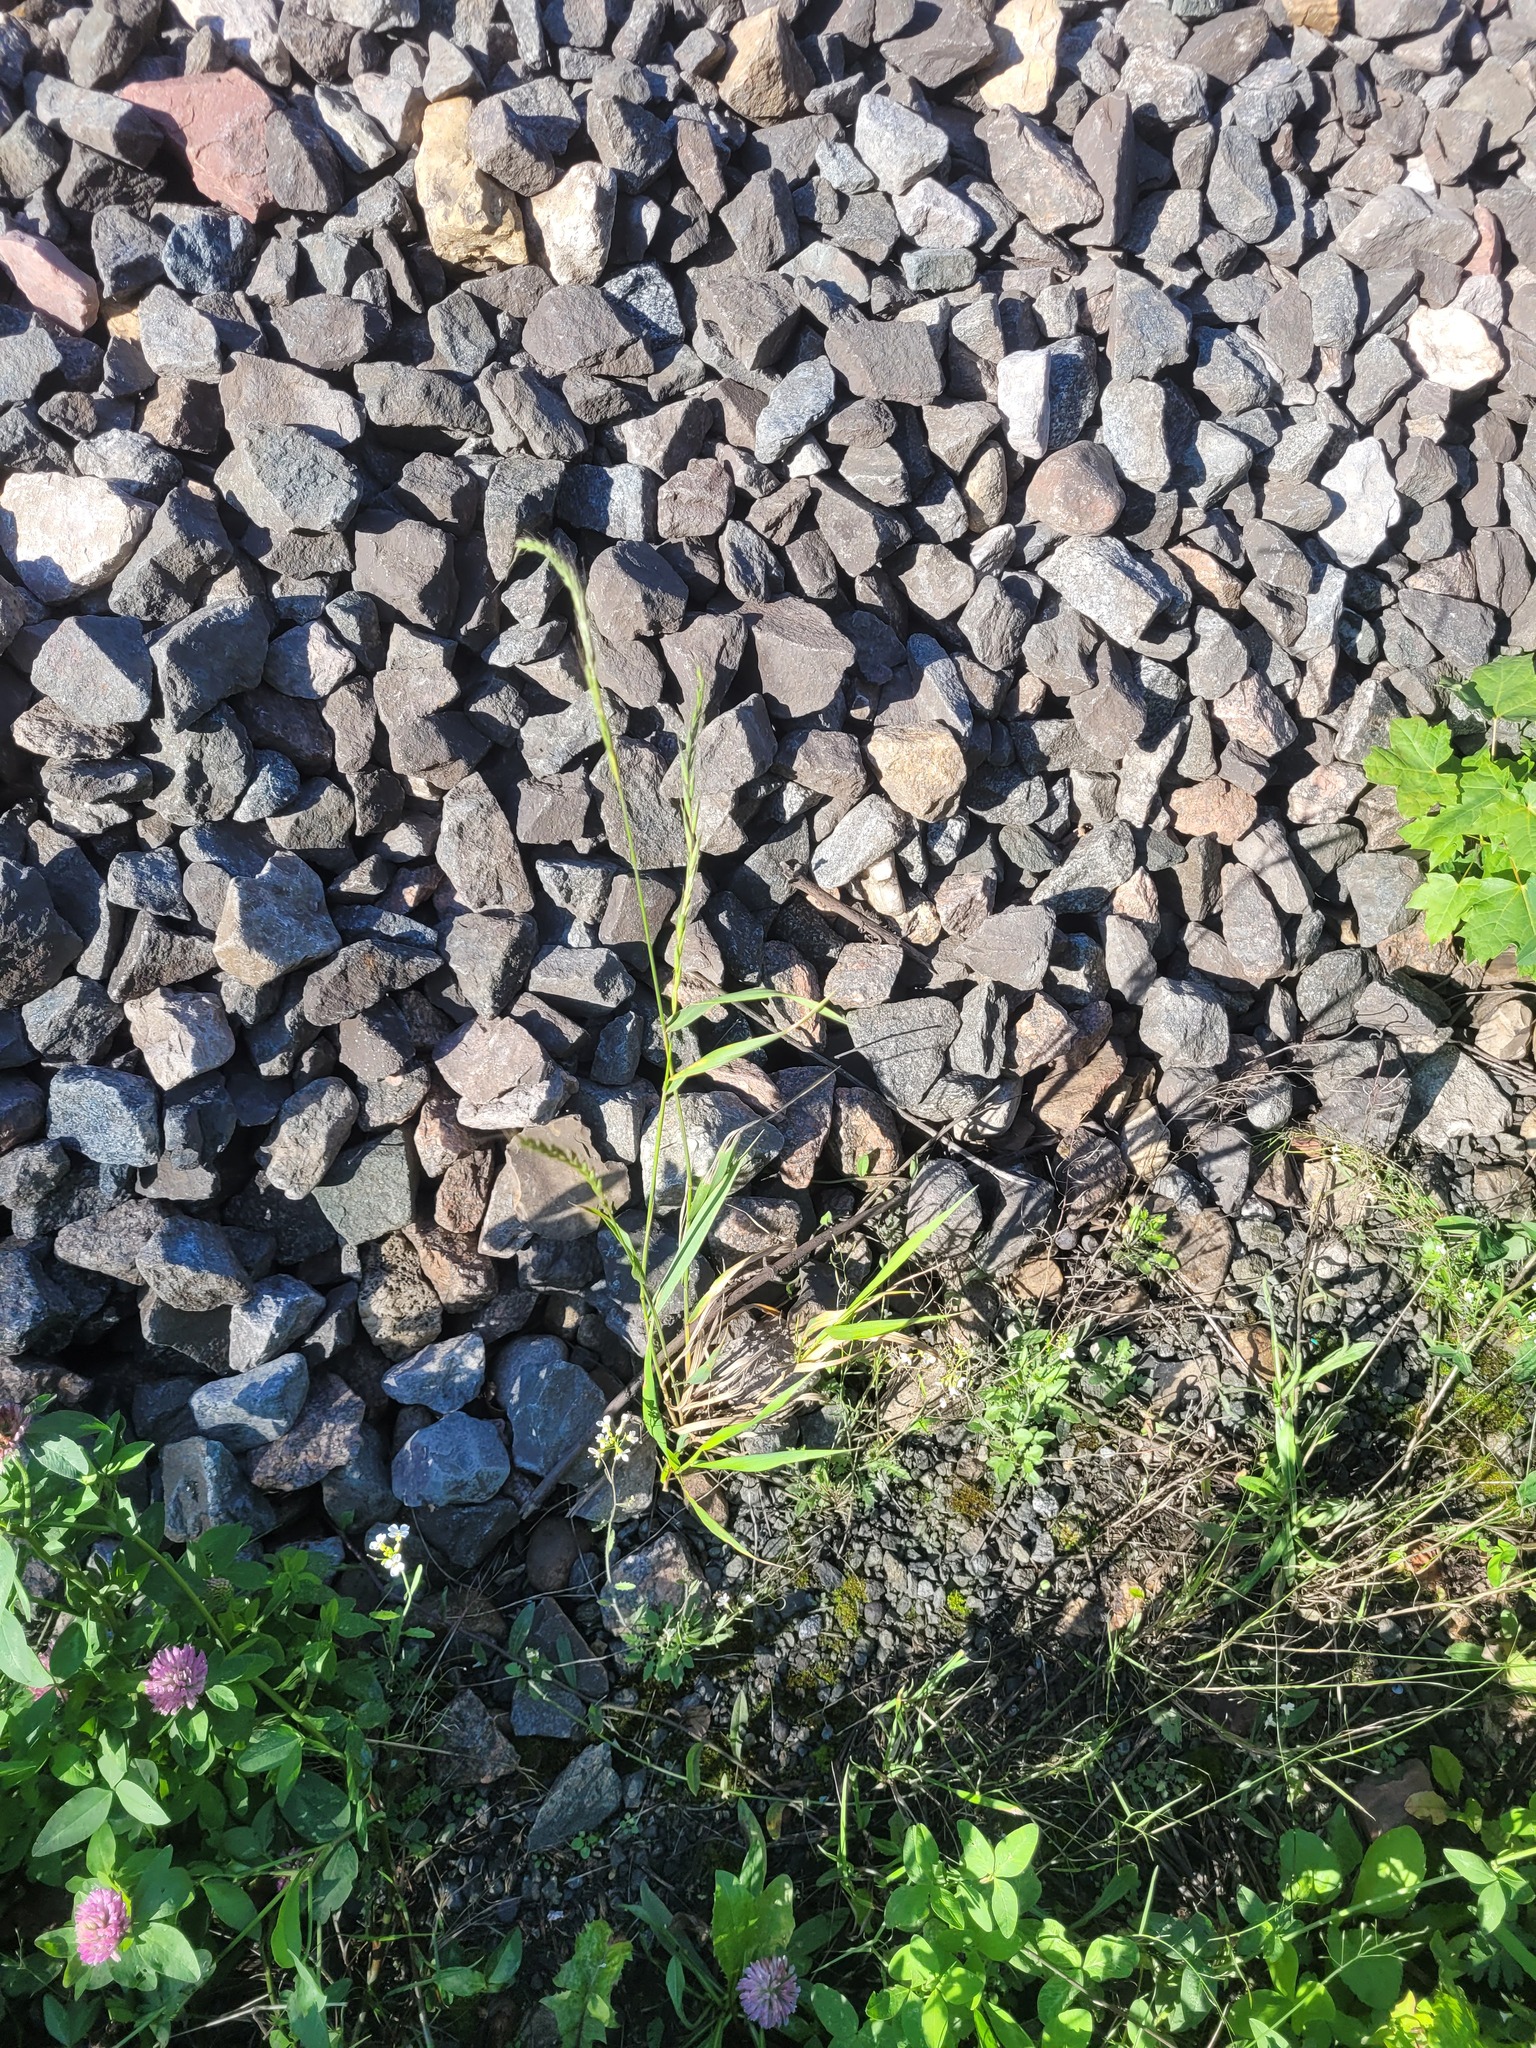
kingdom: Plantae
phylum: Tracheophyta
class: Liliopsida
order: Poales
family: Poaceae
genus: Elymus
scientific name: Elymus caninus
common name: Bearded couch
